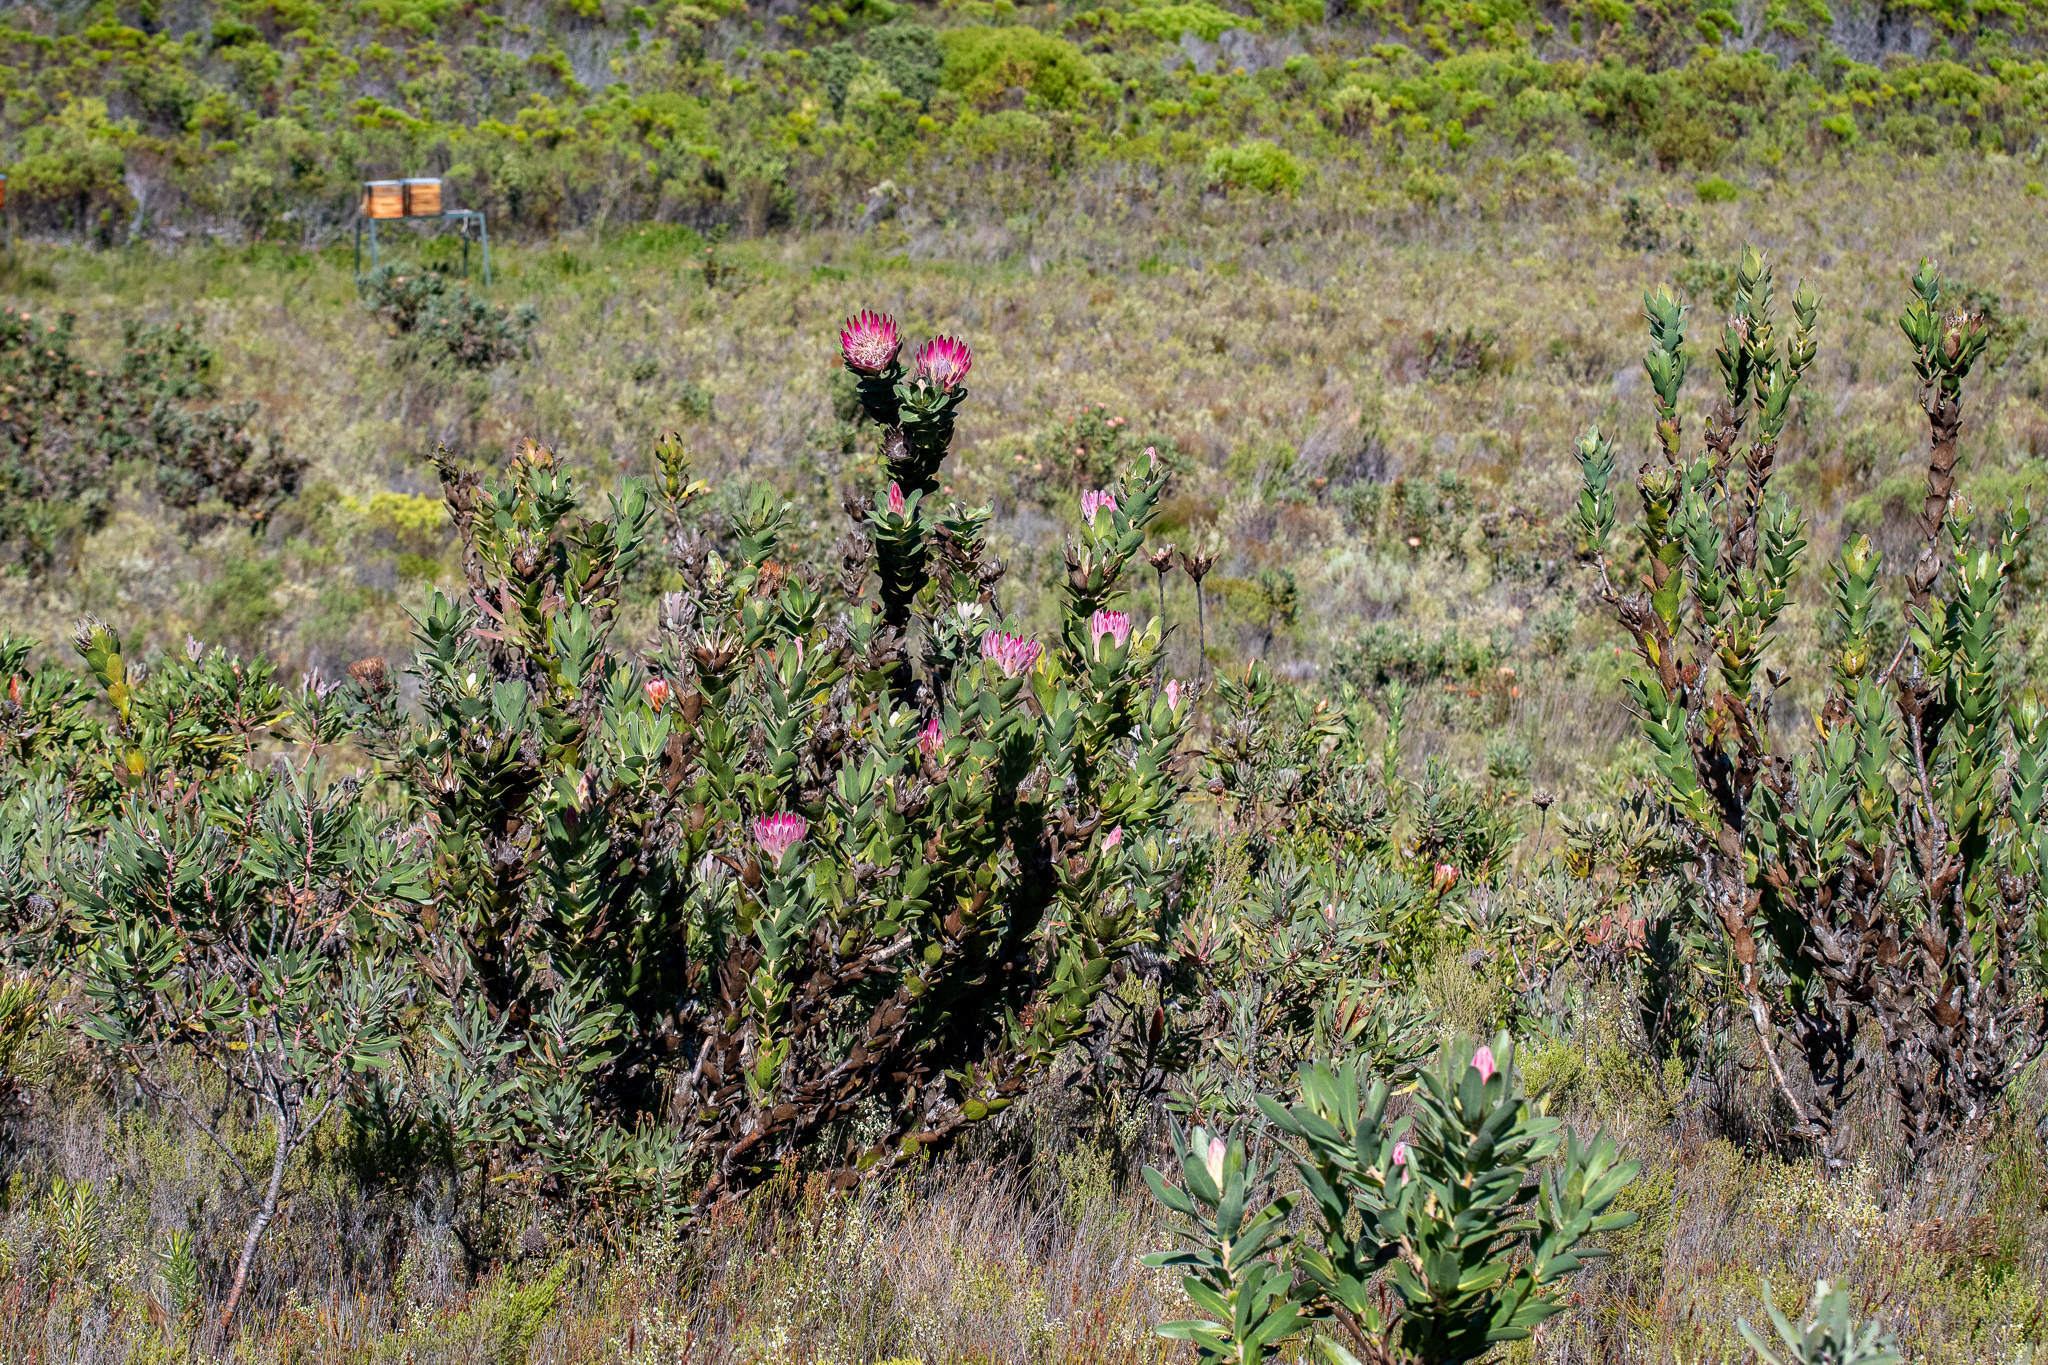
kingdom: Plantae
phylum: Tracheophyta
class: Magnoliopsida
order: Proteales
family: Proteaceae
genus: Protea
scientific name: Protea compacta
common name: Bot river protea
